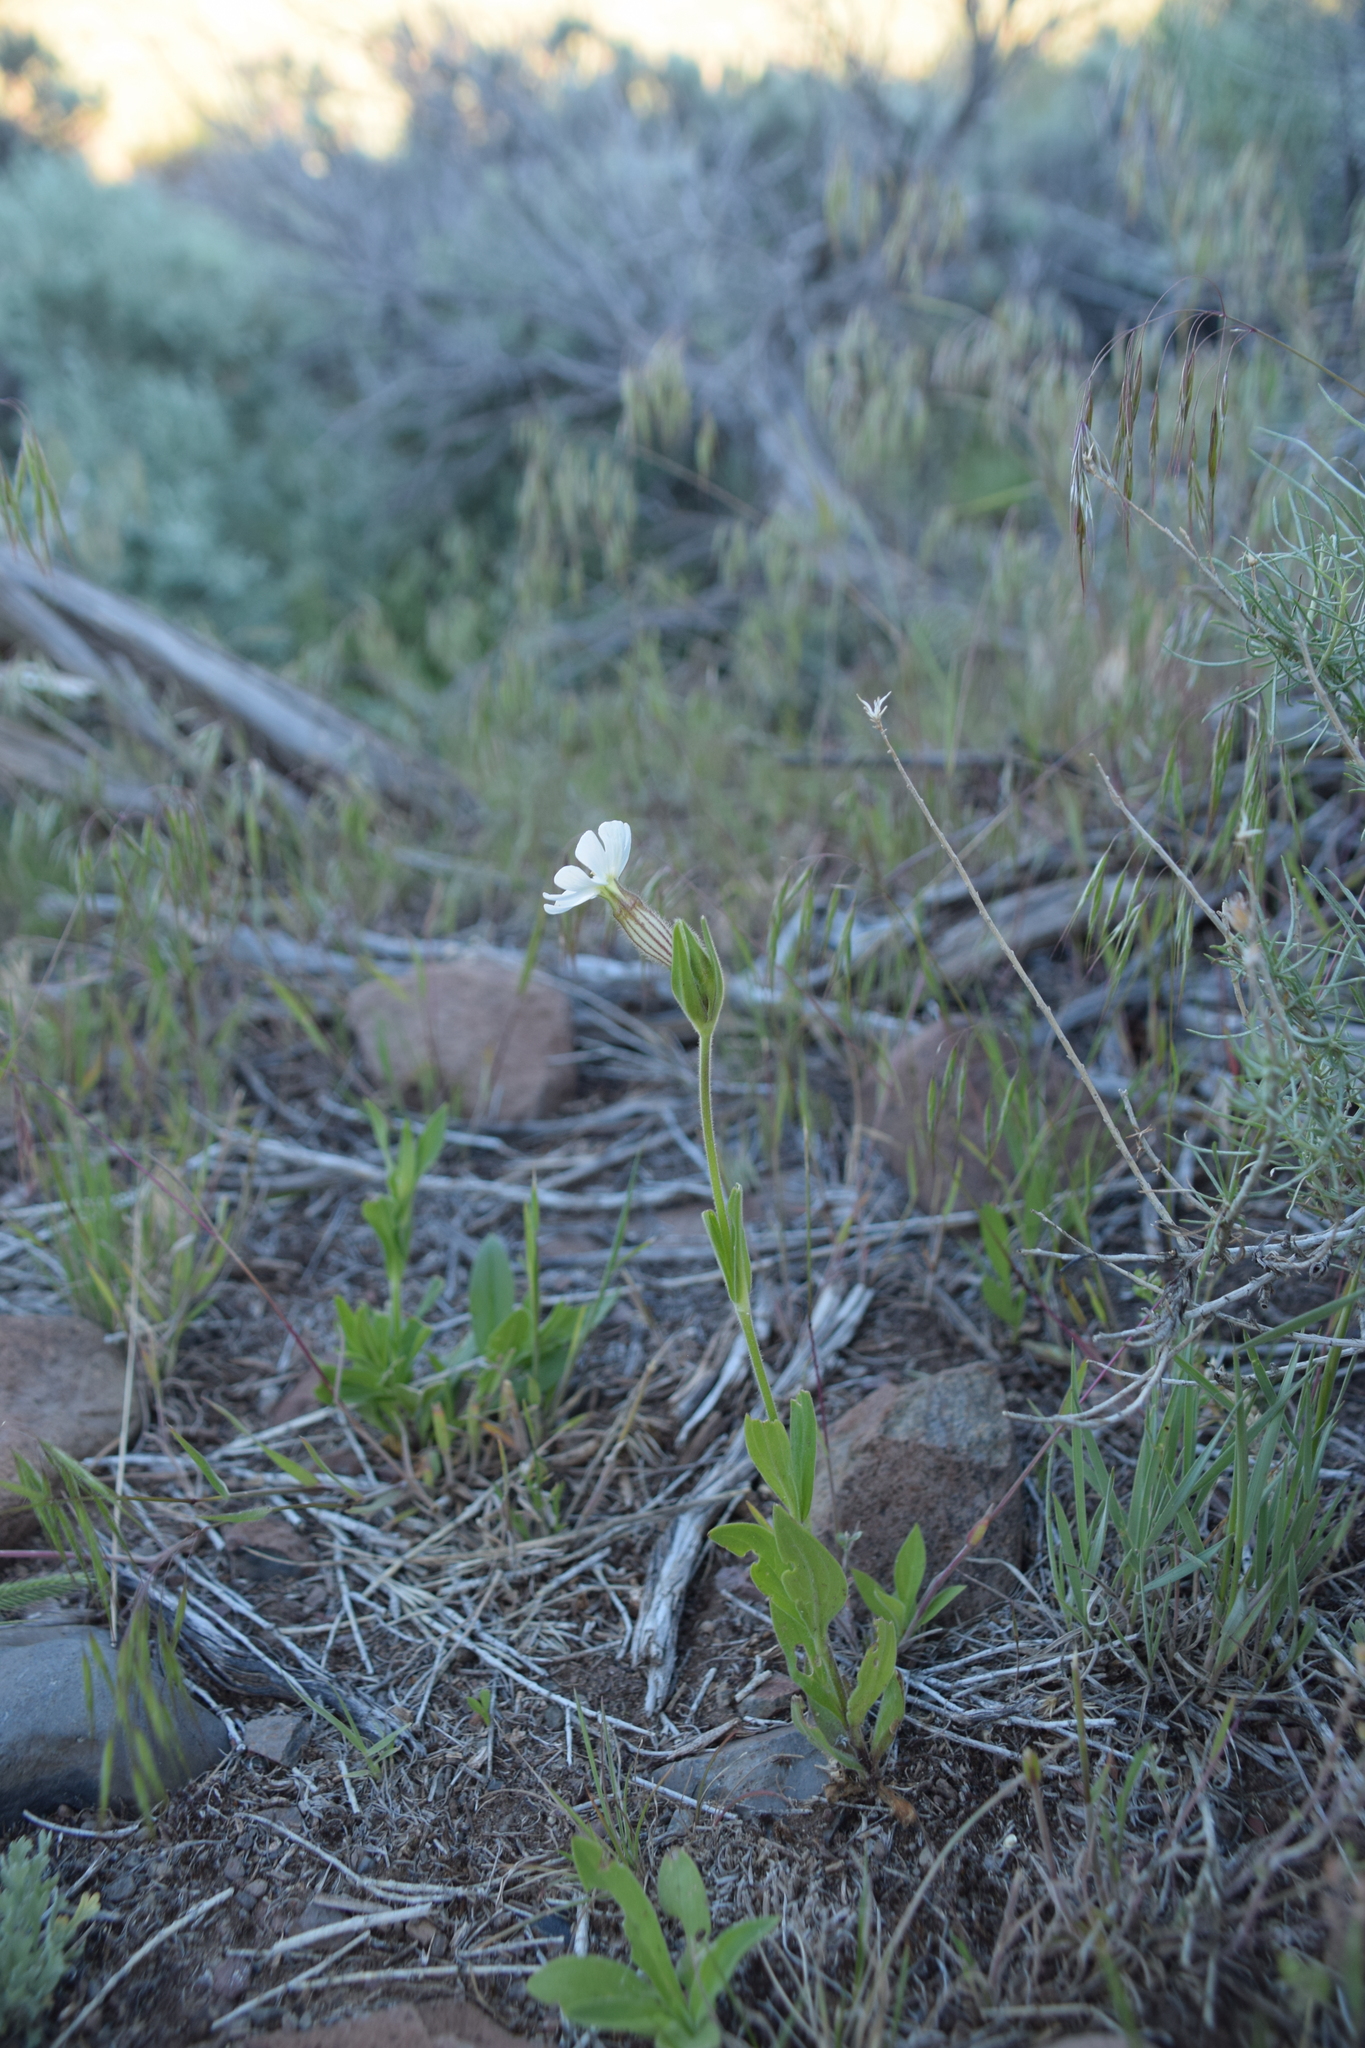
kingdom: Plantae
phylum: Tracheophyta
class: Magnoliopsida
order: Caryophyllales
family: Caryophyllaceae
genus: Silene
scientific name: Silene latifolia
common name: White campion
